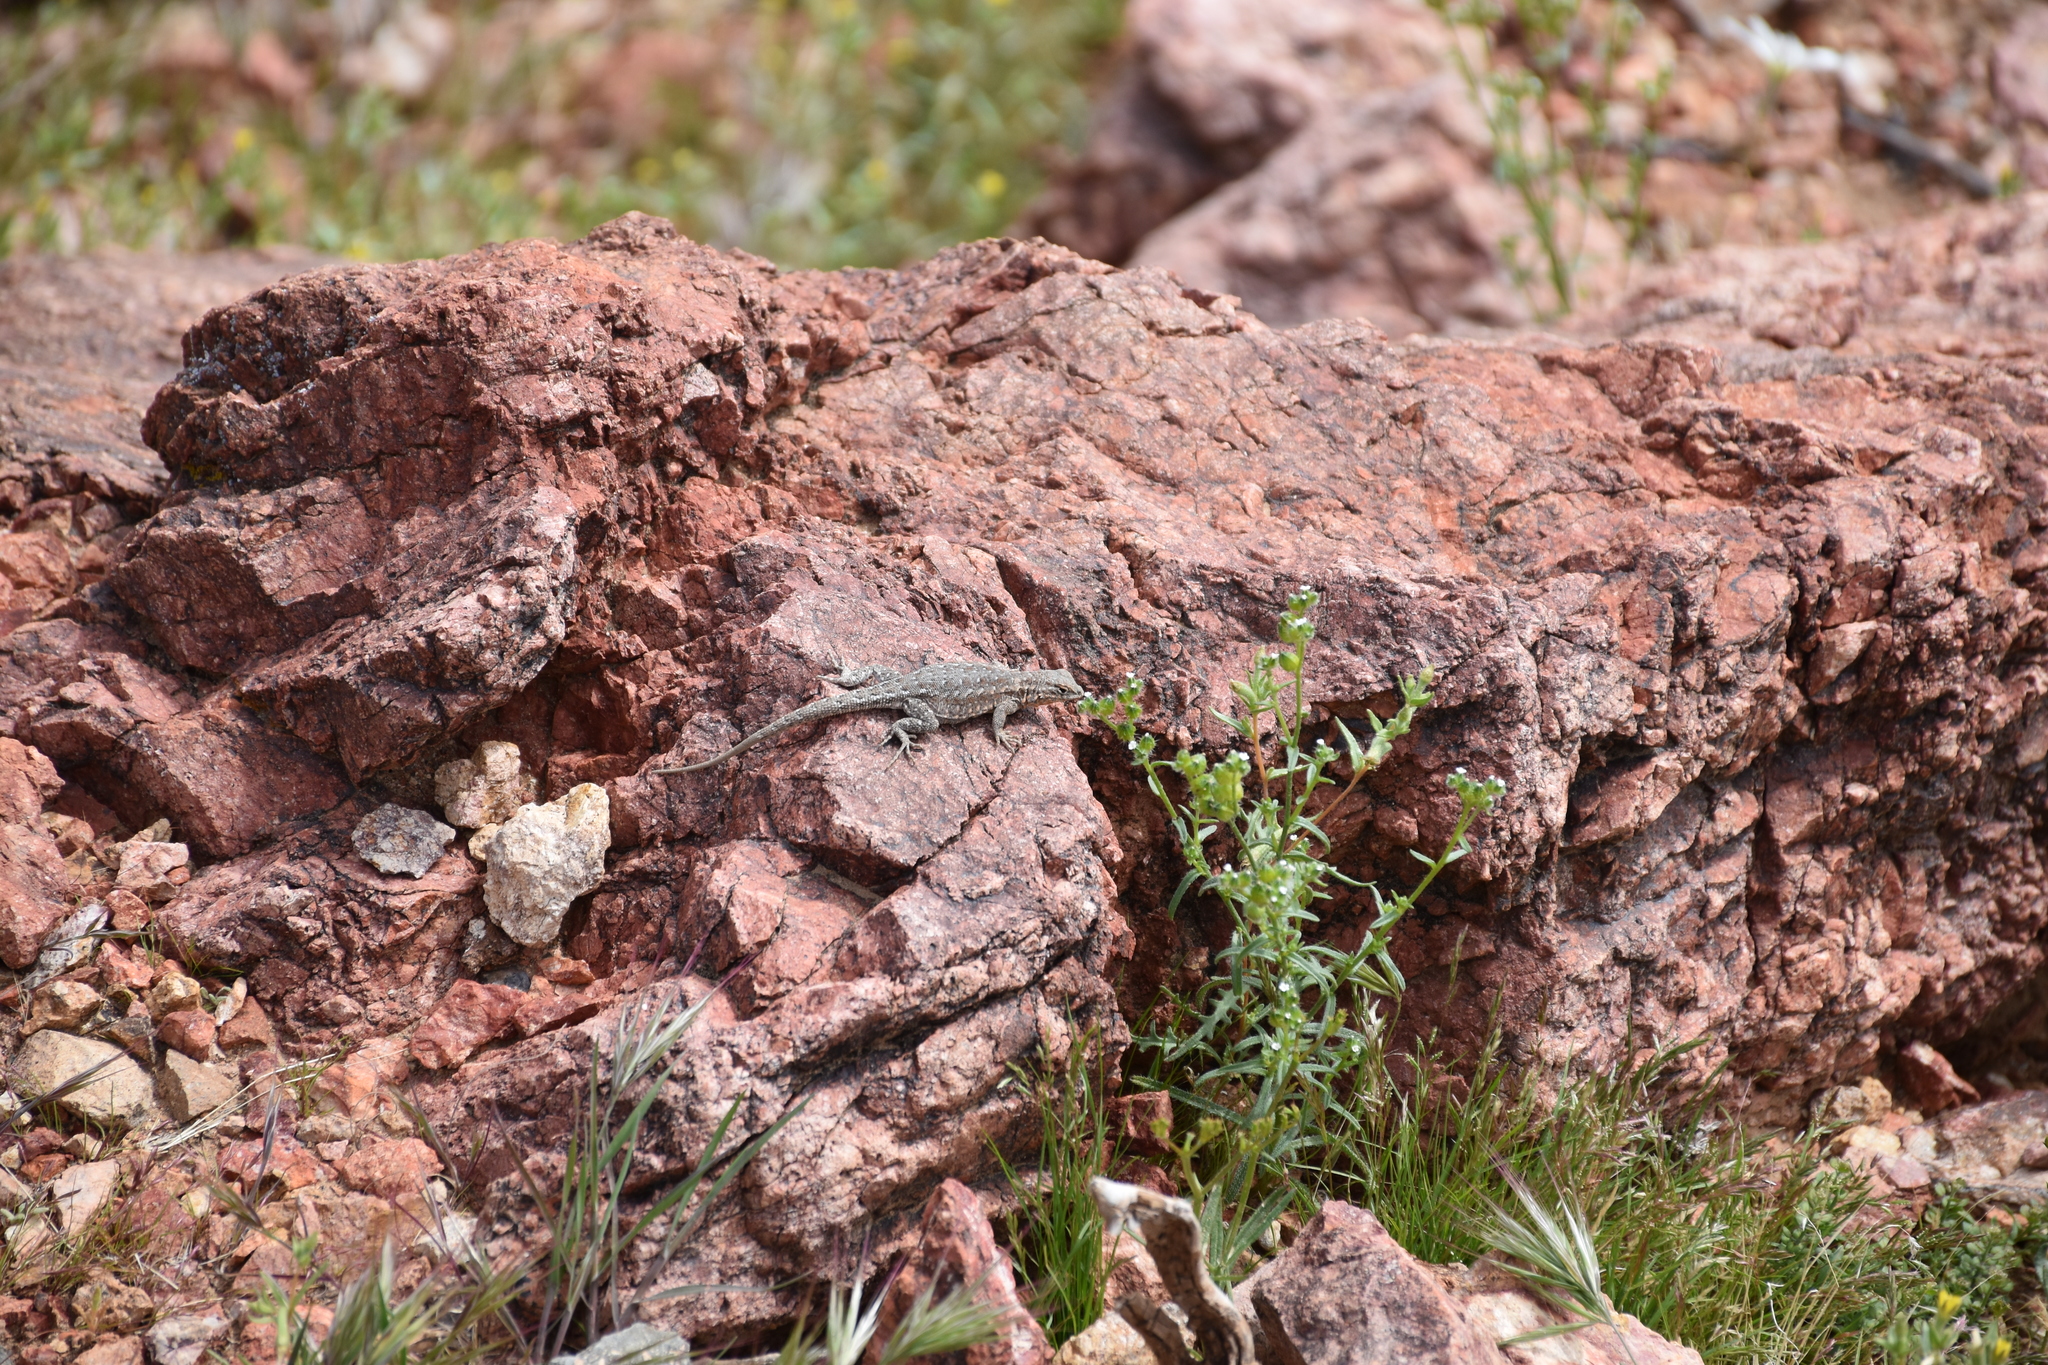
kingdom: Animalia
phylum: Chordata
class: Squamata
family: Phrynosomatidae
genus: Uta
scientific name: Uta stansburiana
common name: Side-blotched lizard
